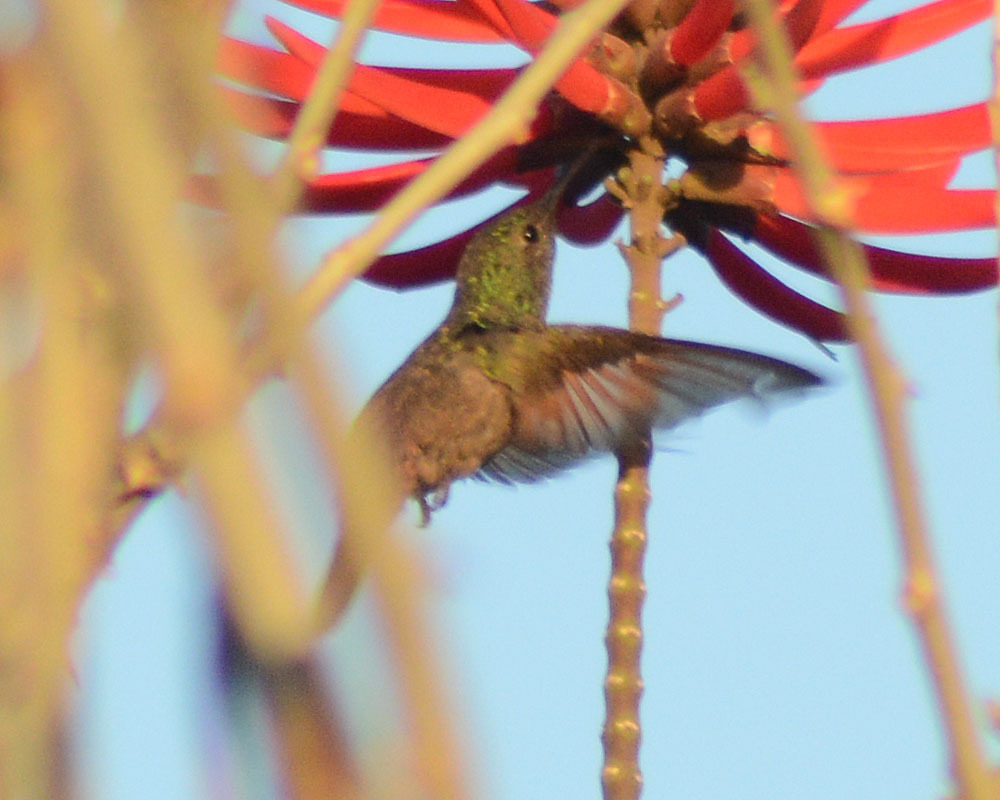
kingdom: Animalia
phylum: Chordata
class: Aves
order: Apodiformes
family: Trochilidae
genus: Saucerottia
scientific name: Saucerottia beryllina
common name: Berylline hummingbird
